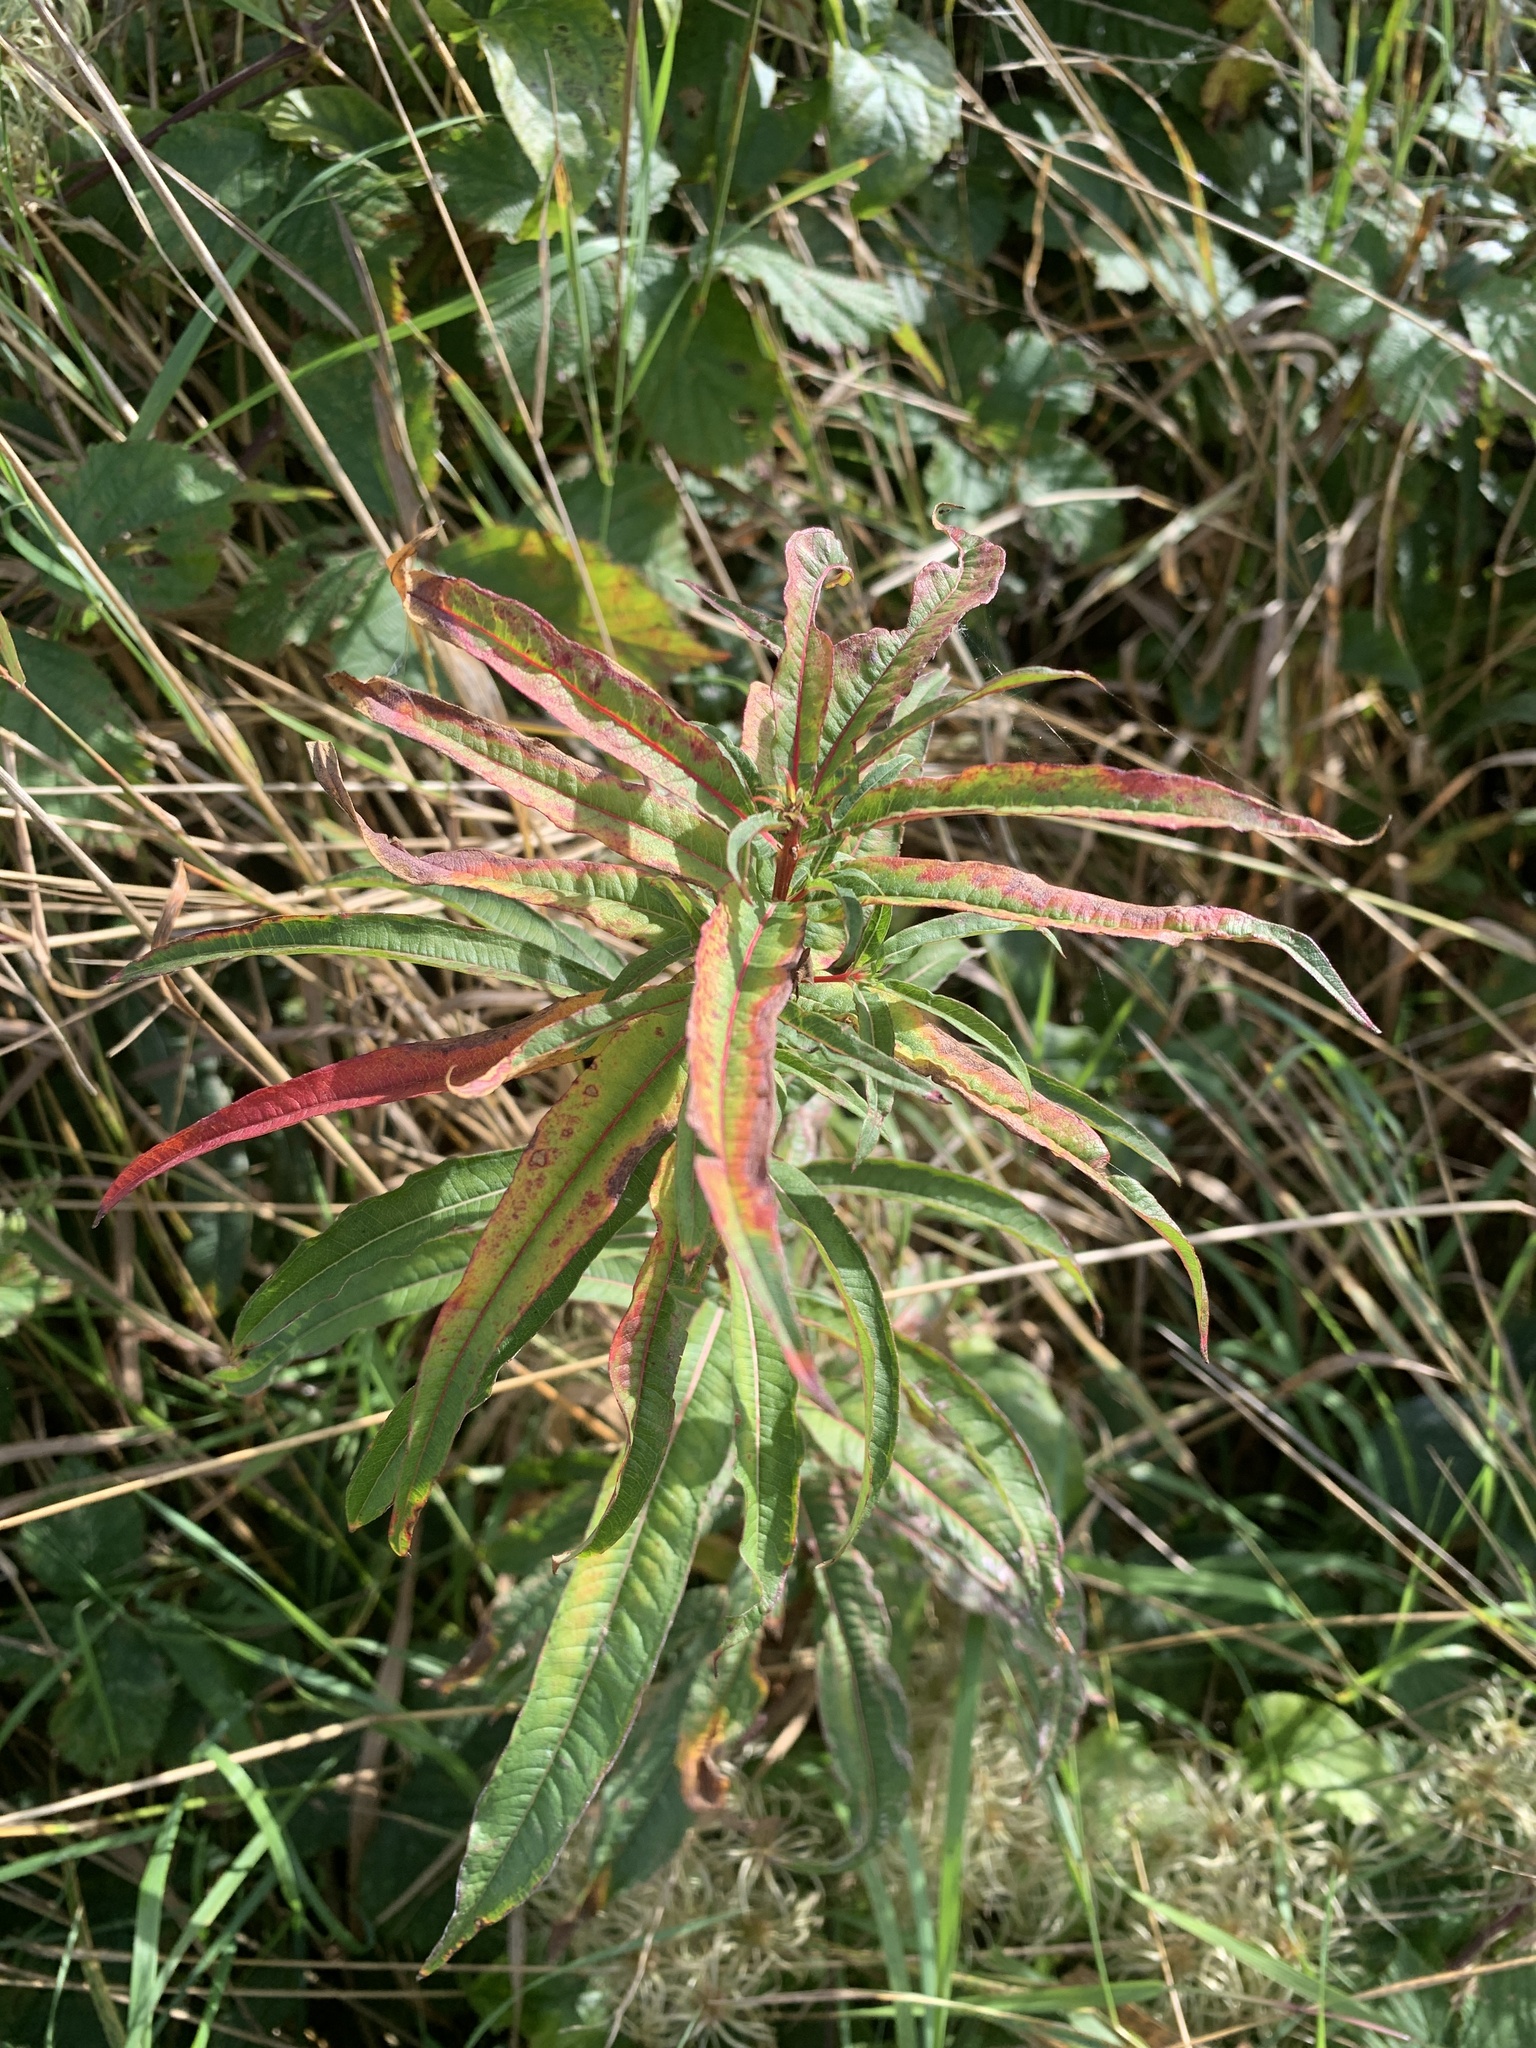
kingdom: Plantae
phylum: Tracheophyta
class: Magnoliopsida
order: Myrtales
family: Onagraceae
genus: Chamaenerion
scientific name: Chamaenerion angustifolium
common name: Fireweed
